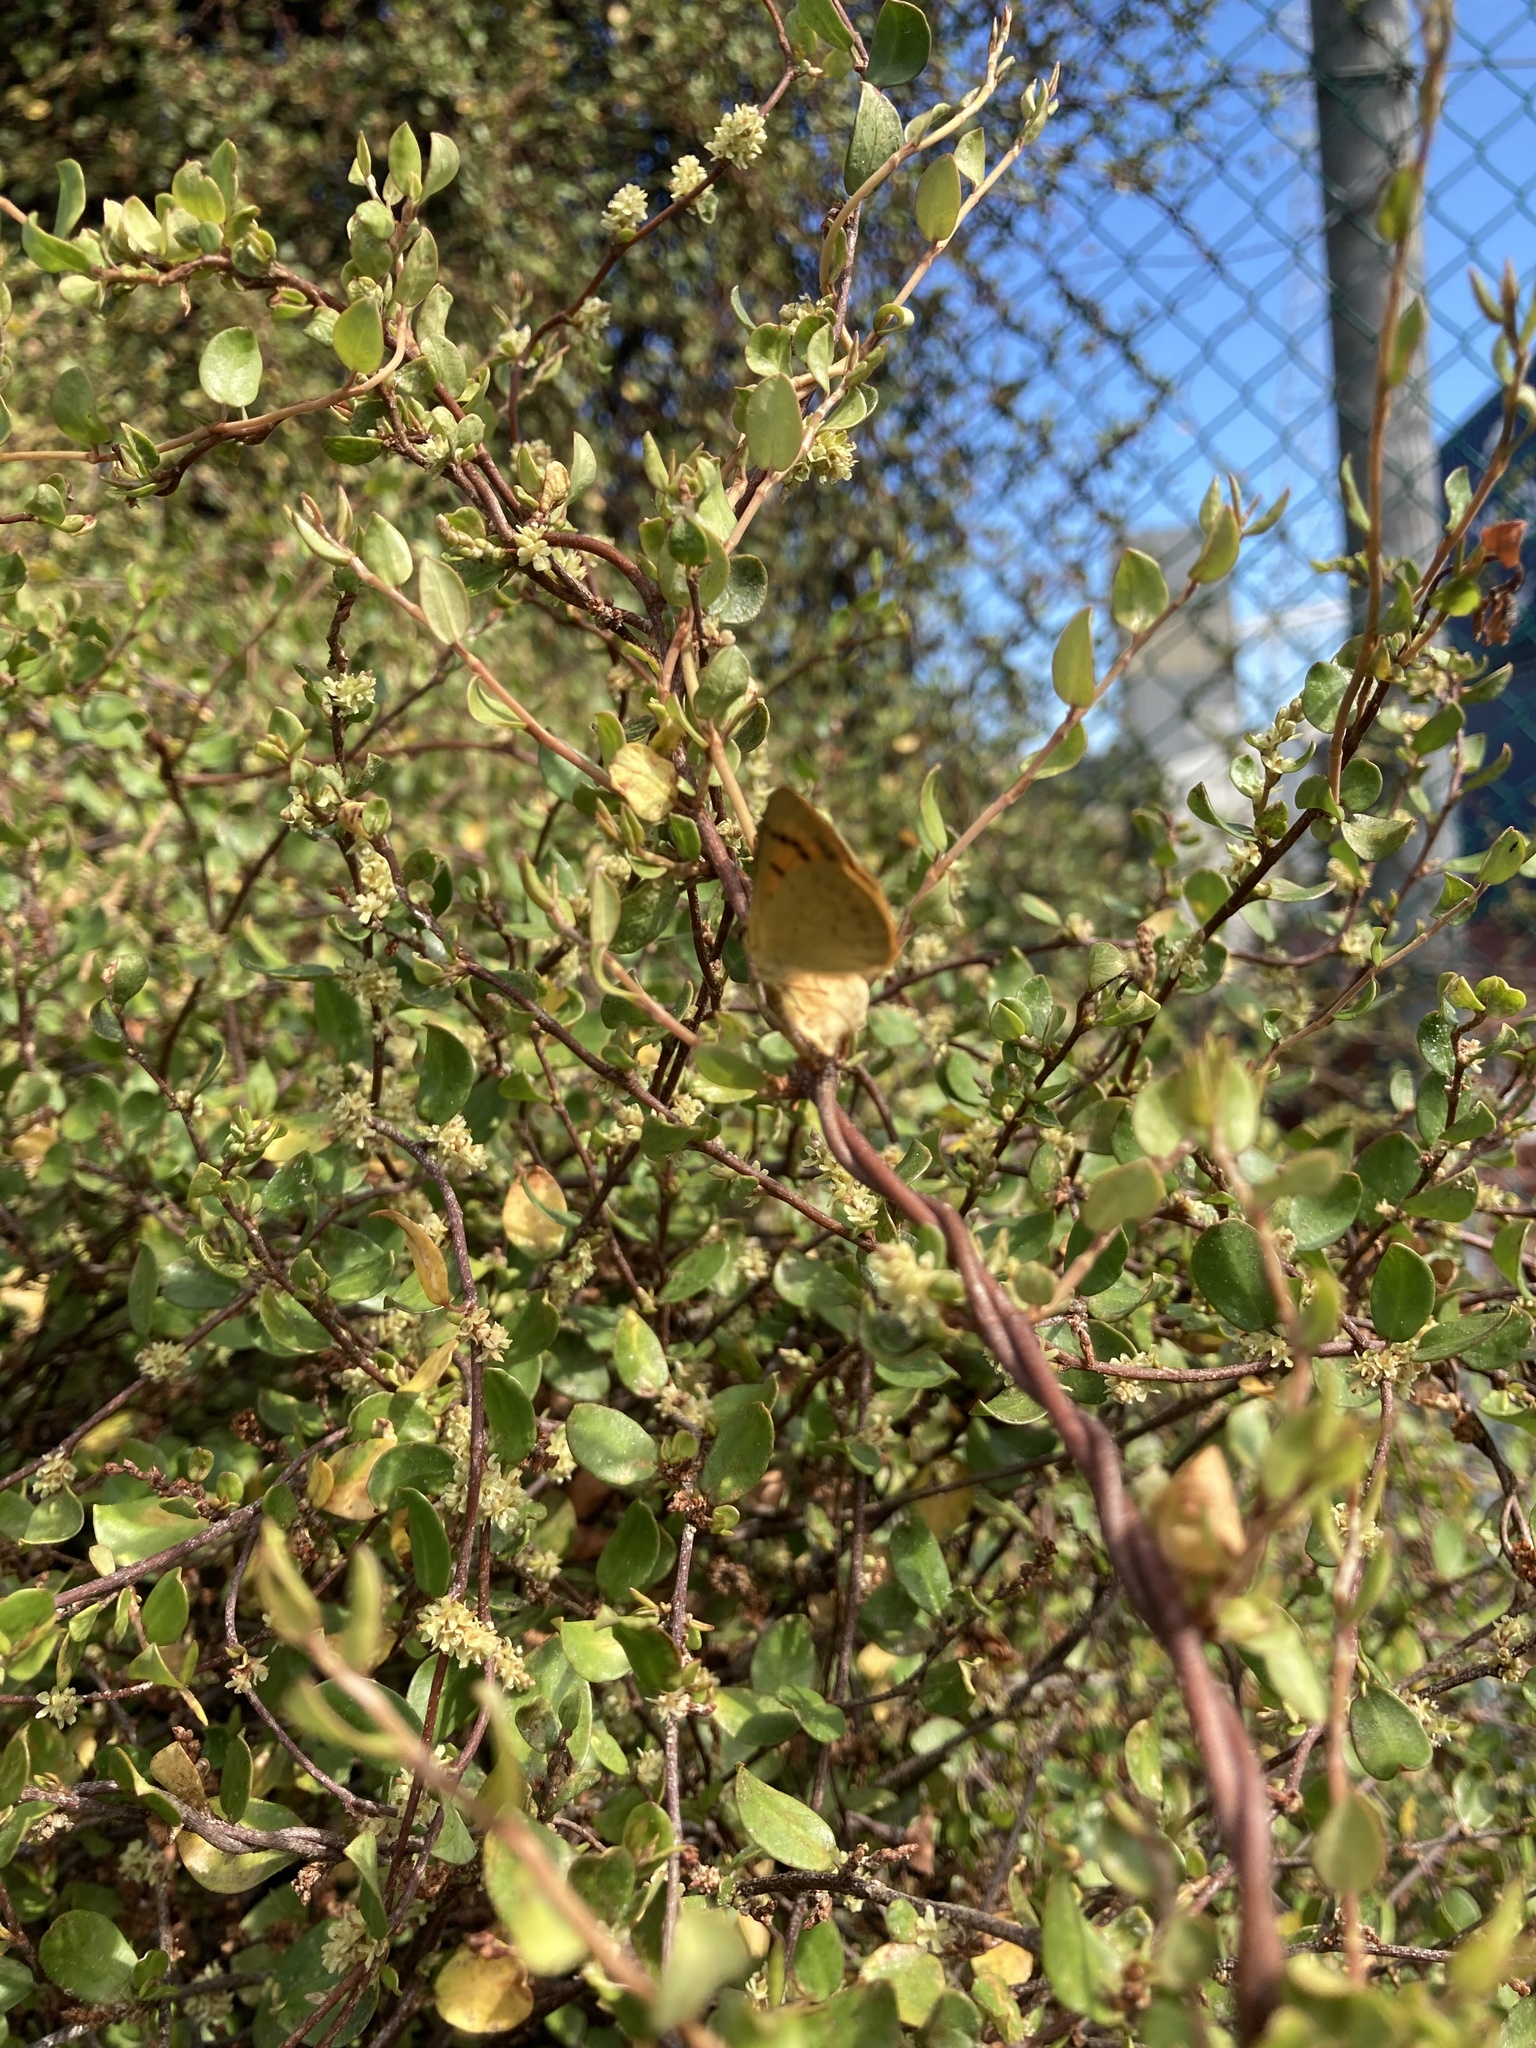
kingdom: Animalia
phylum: Arthropoda
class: Insecta
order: Lepidoptera
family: Lycaenidae
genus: Lycaena
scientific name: Lycaena salustius
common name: North island coastal copper
